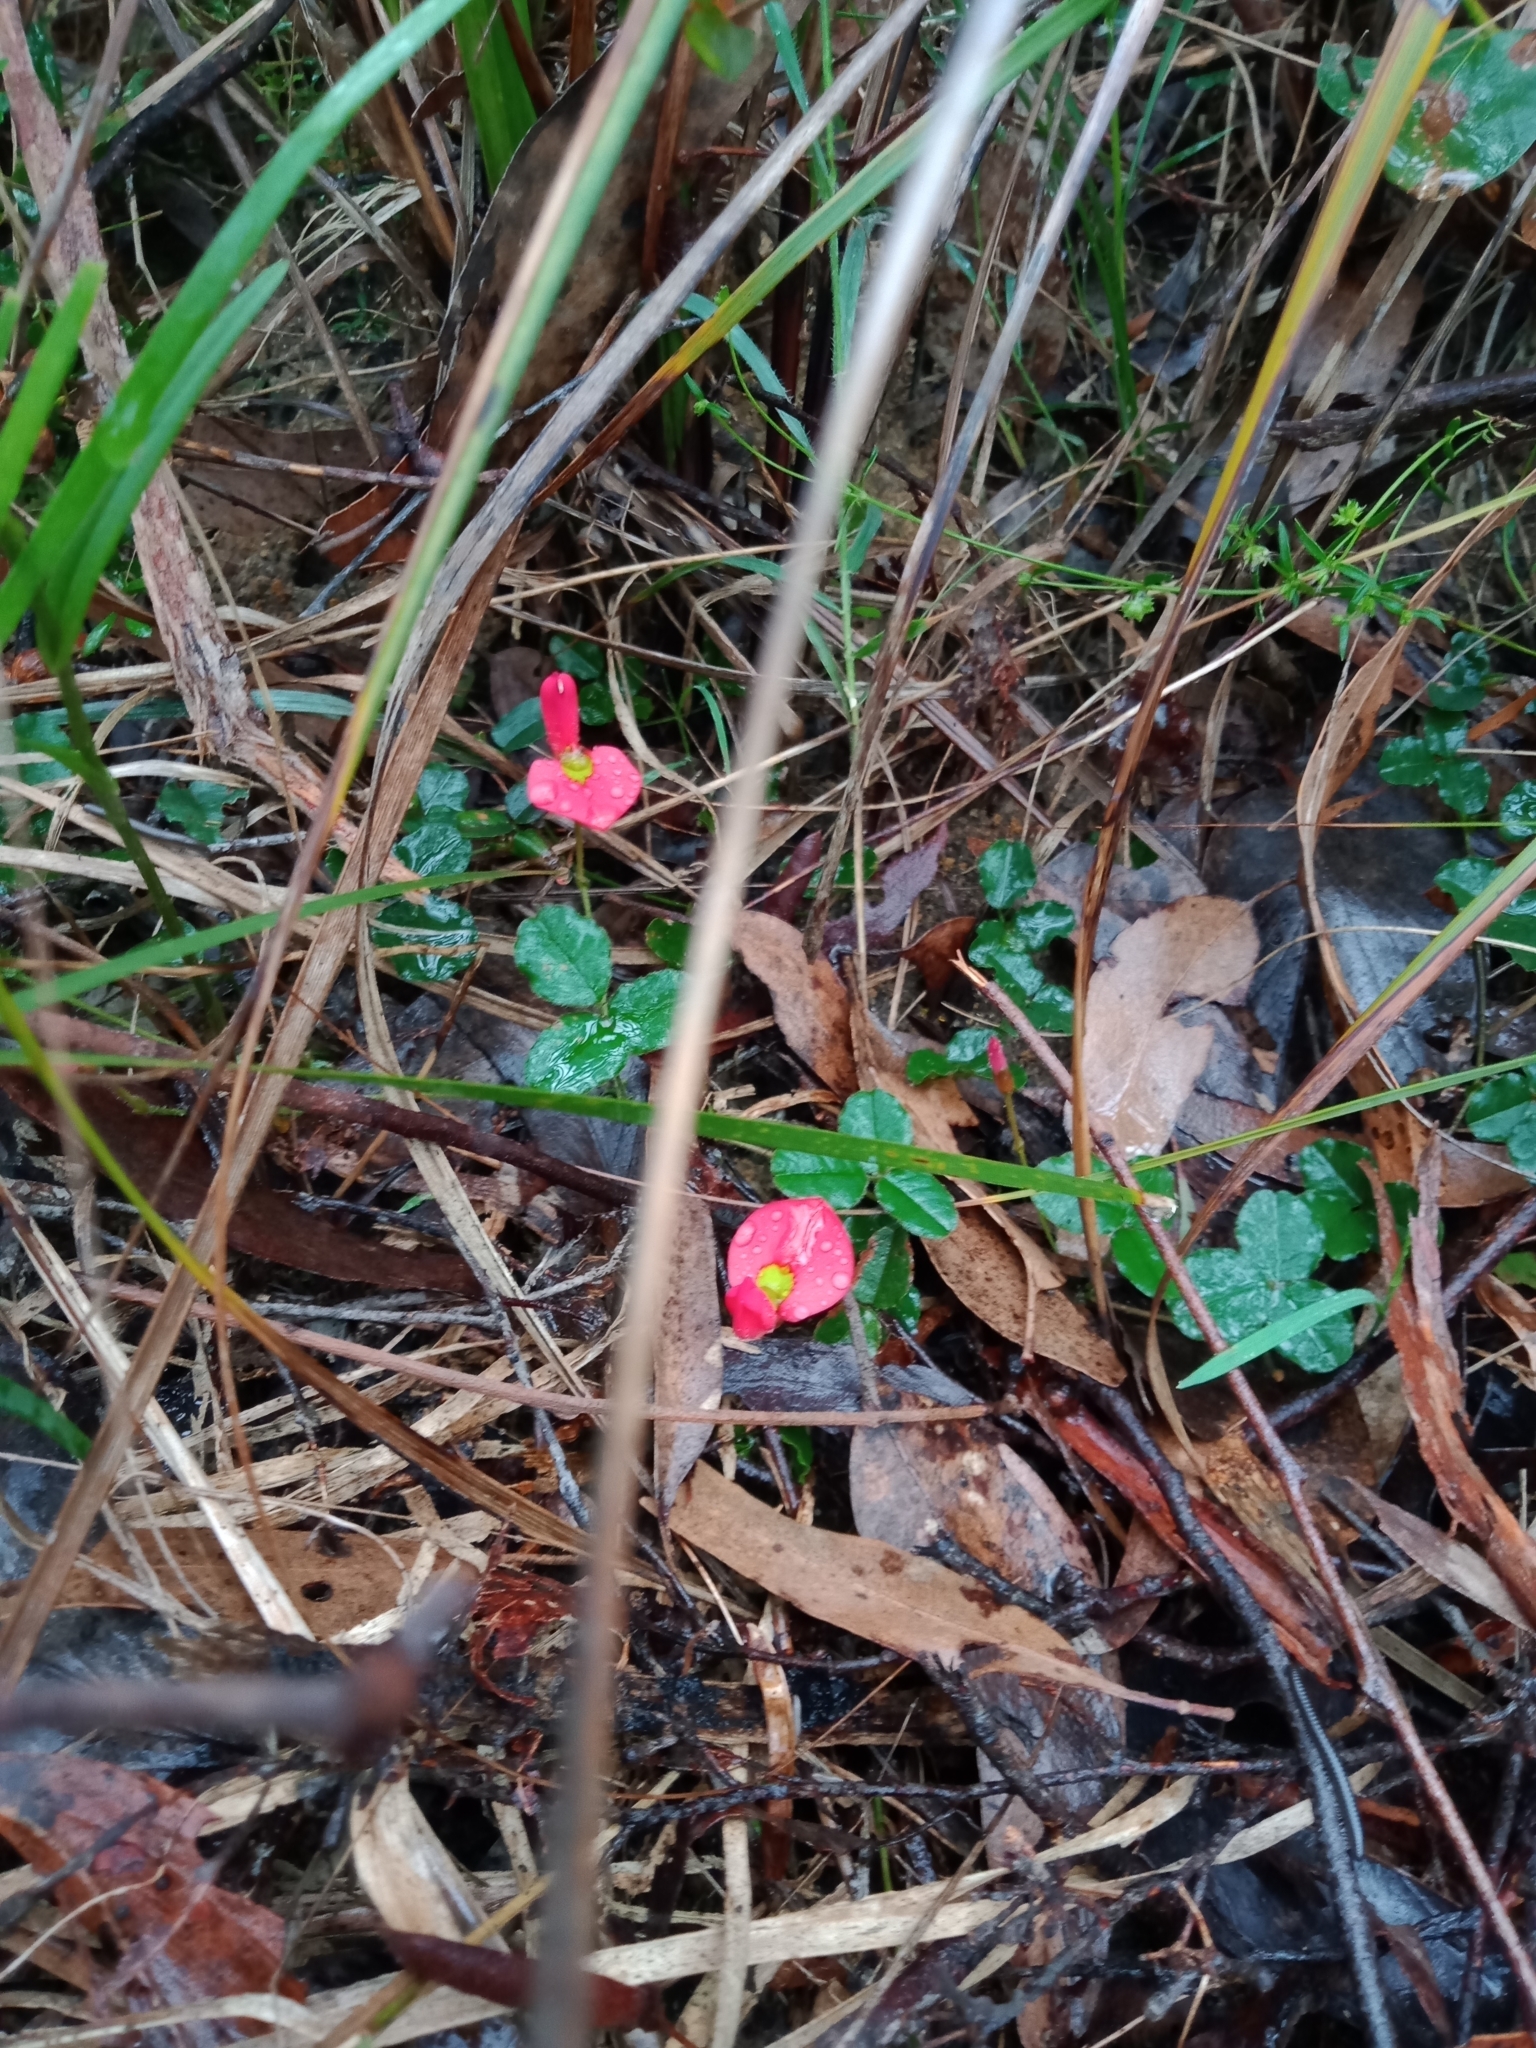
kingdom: Plantae
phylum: Tracheophyta
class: Magnoliopsida
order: Fabales
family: Fabaceae
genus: Kennedia
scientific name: Kennedia prostrata
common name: Running-postman
